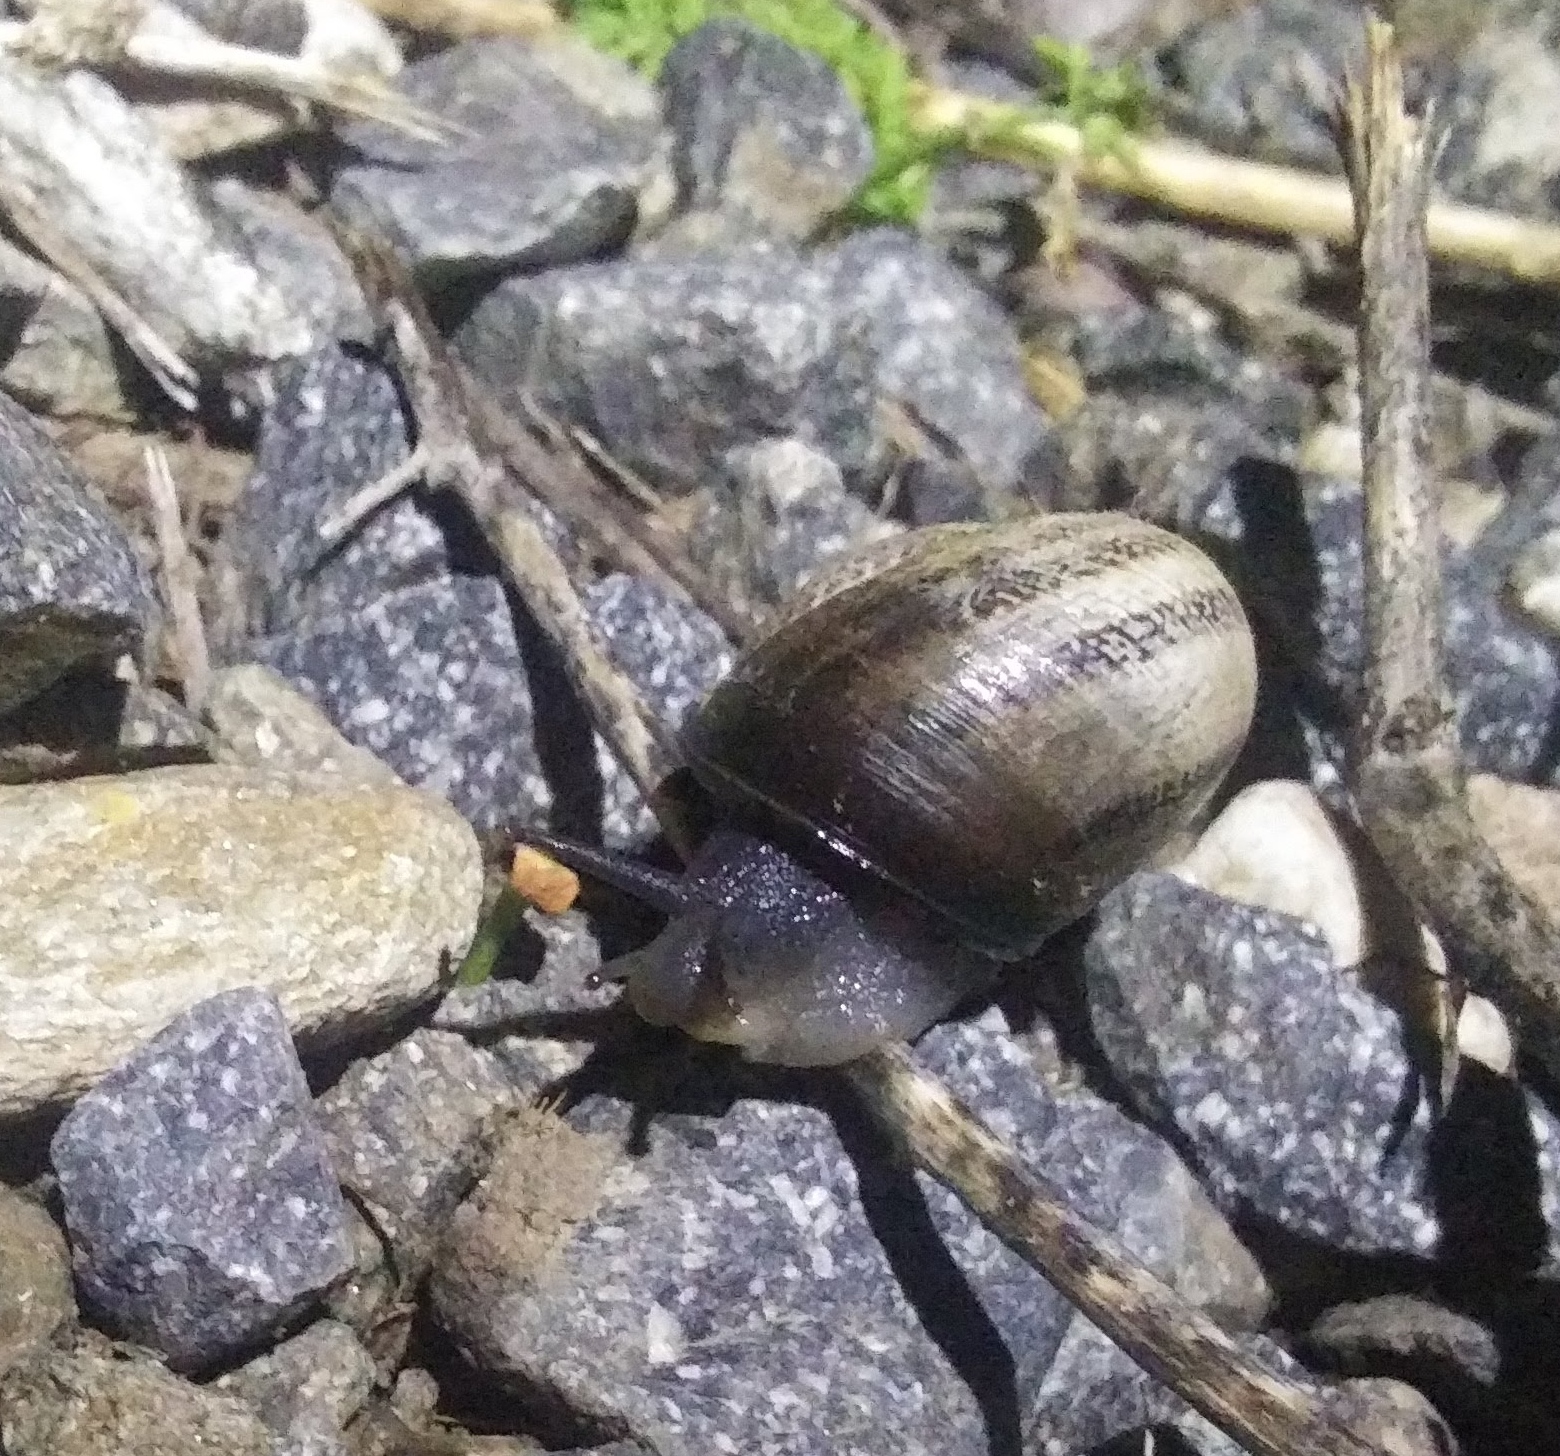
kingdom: Animalia
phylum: Mollusca
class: Gastropoda
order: Stylommatophora
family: Helicidae
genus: Otala
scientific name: Otala lactea
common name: Milk snail
